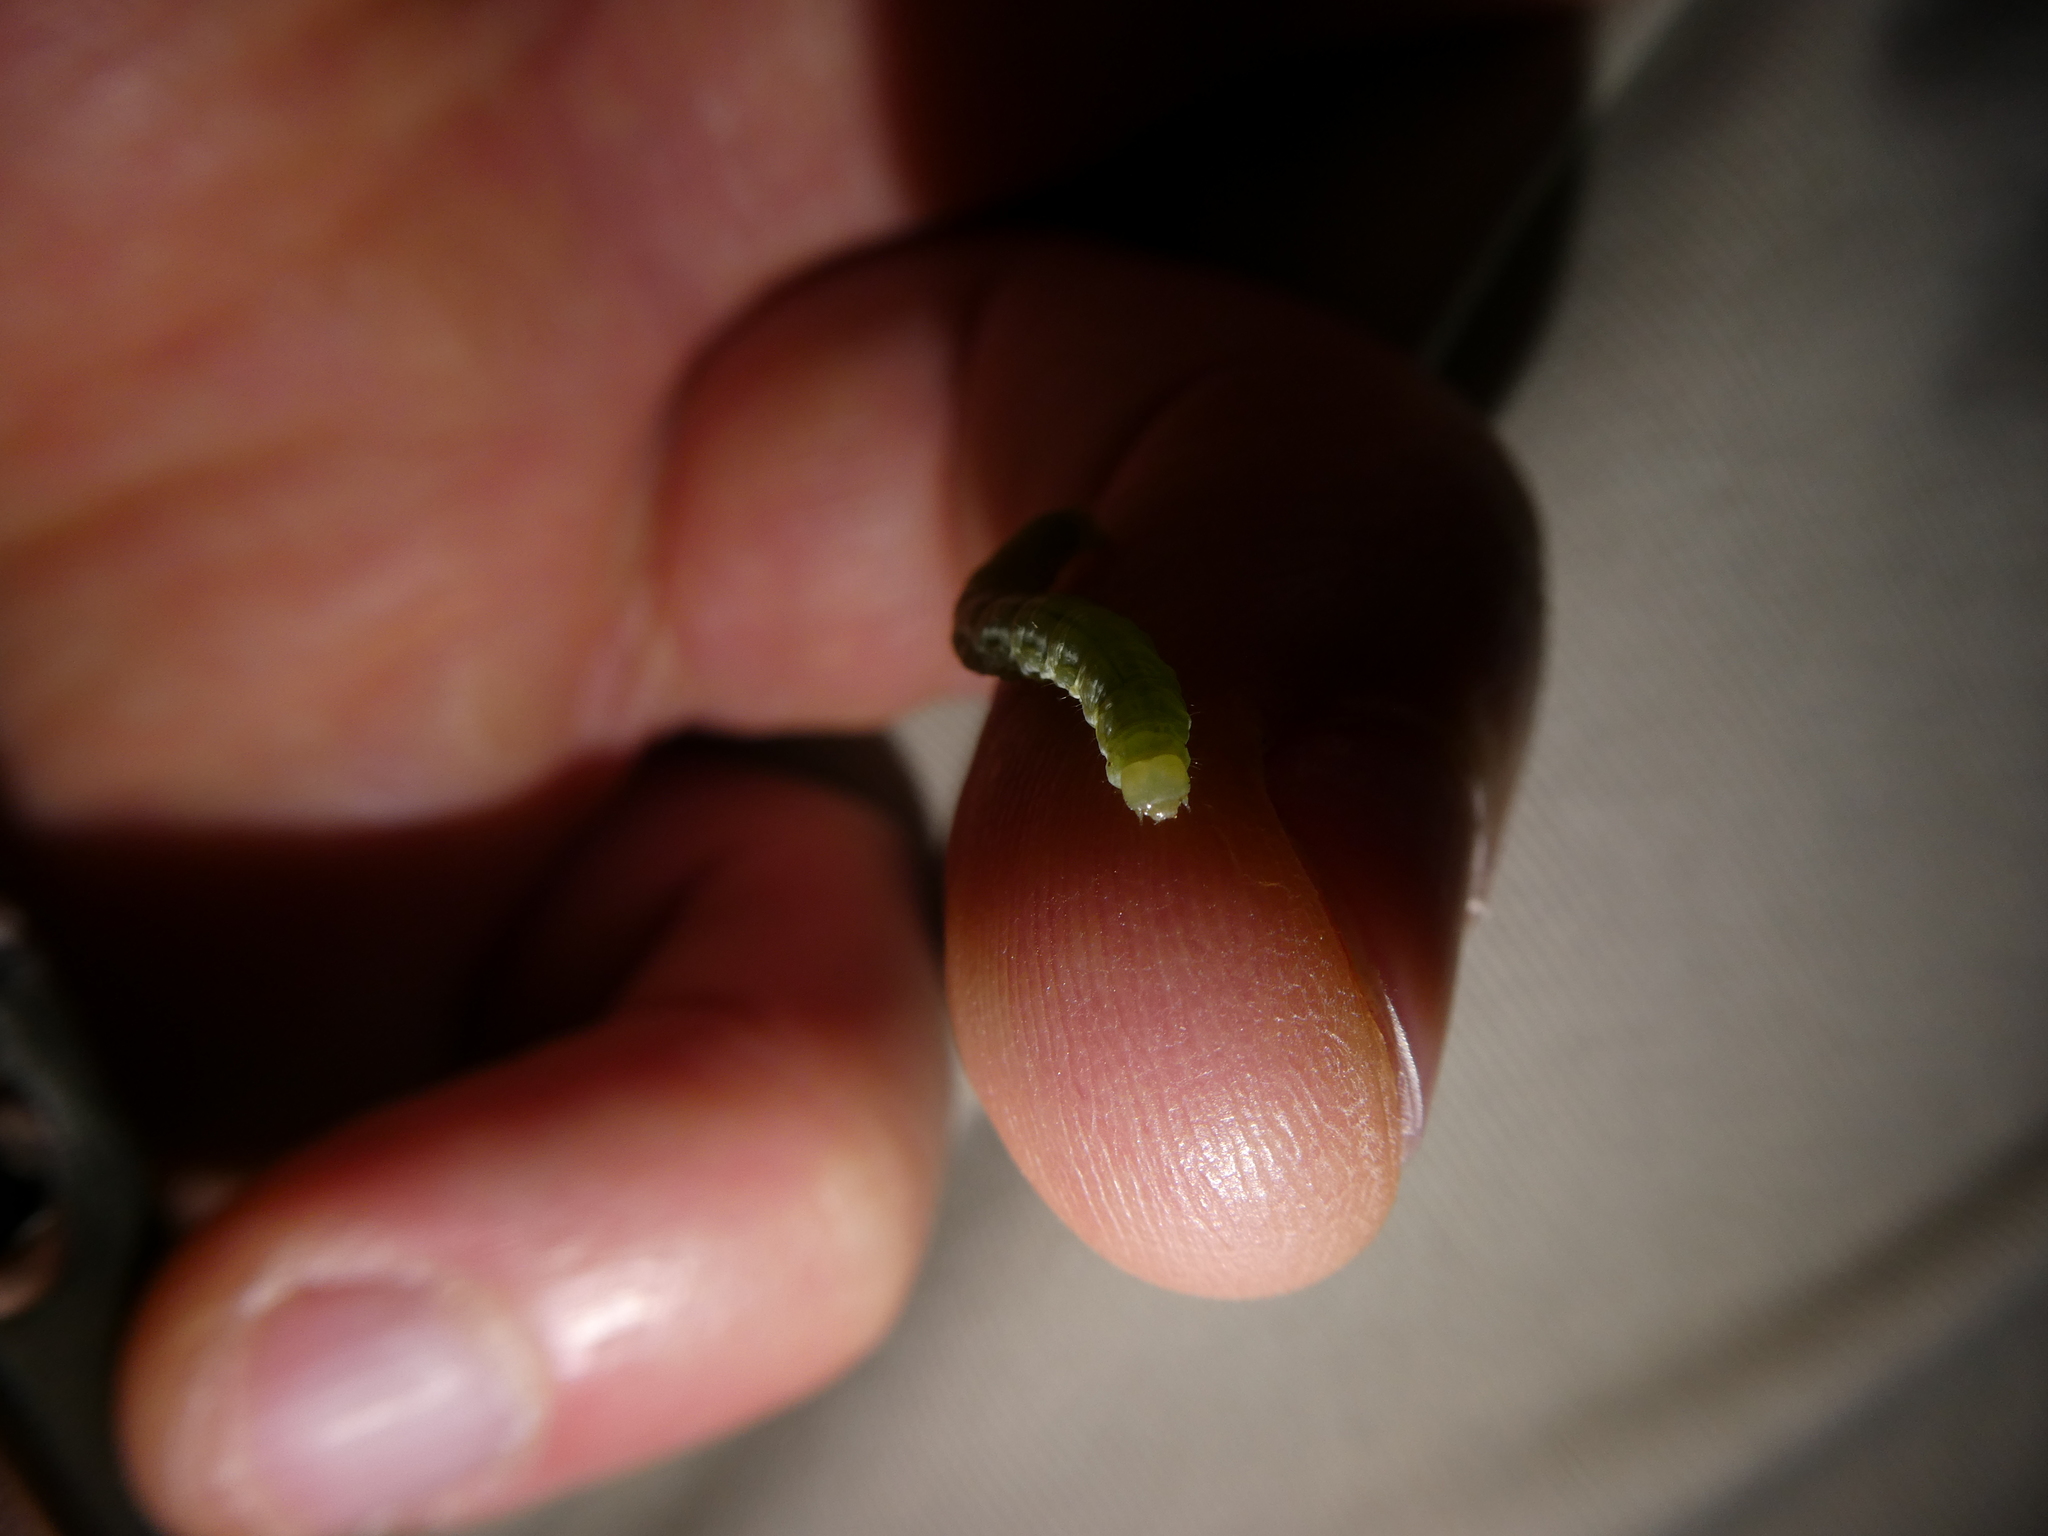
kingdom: Animalia
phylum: Arthropoda
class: Insecta
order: Lepidoptera
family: Geometridae
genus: Operophtera
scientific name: Operophtera brumata
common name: Winter moth
